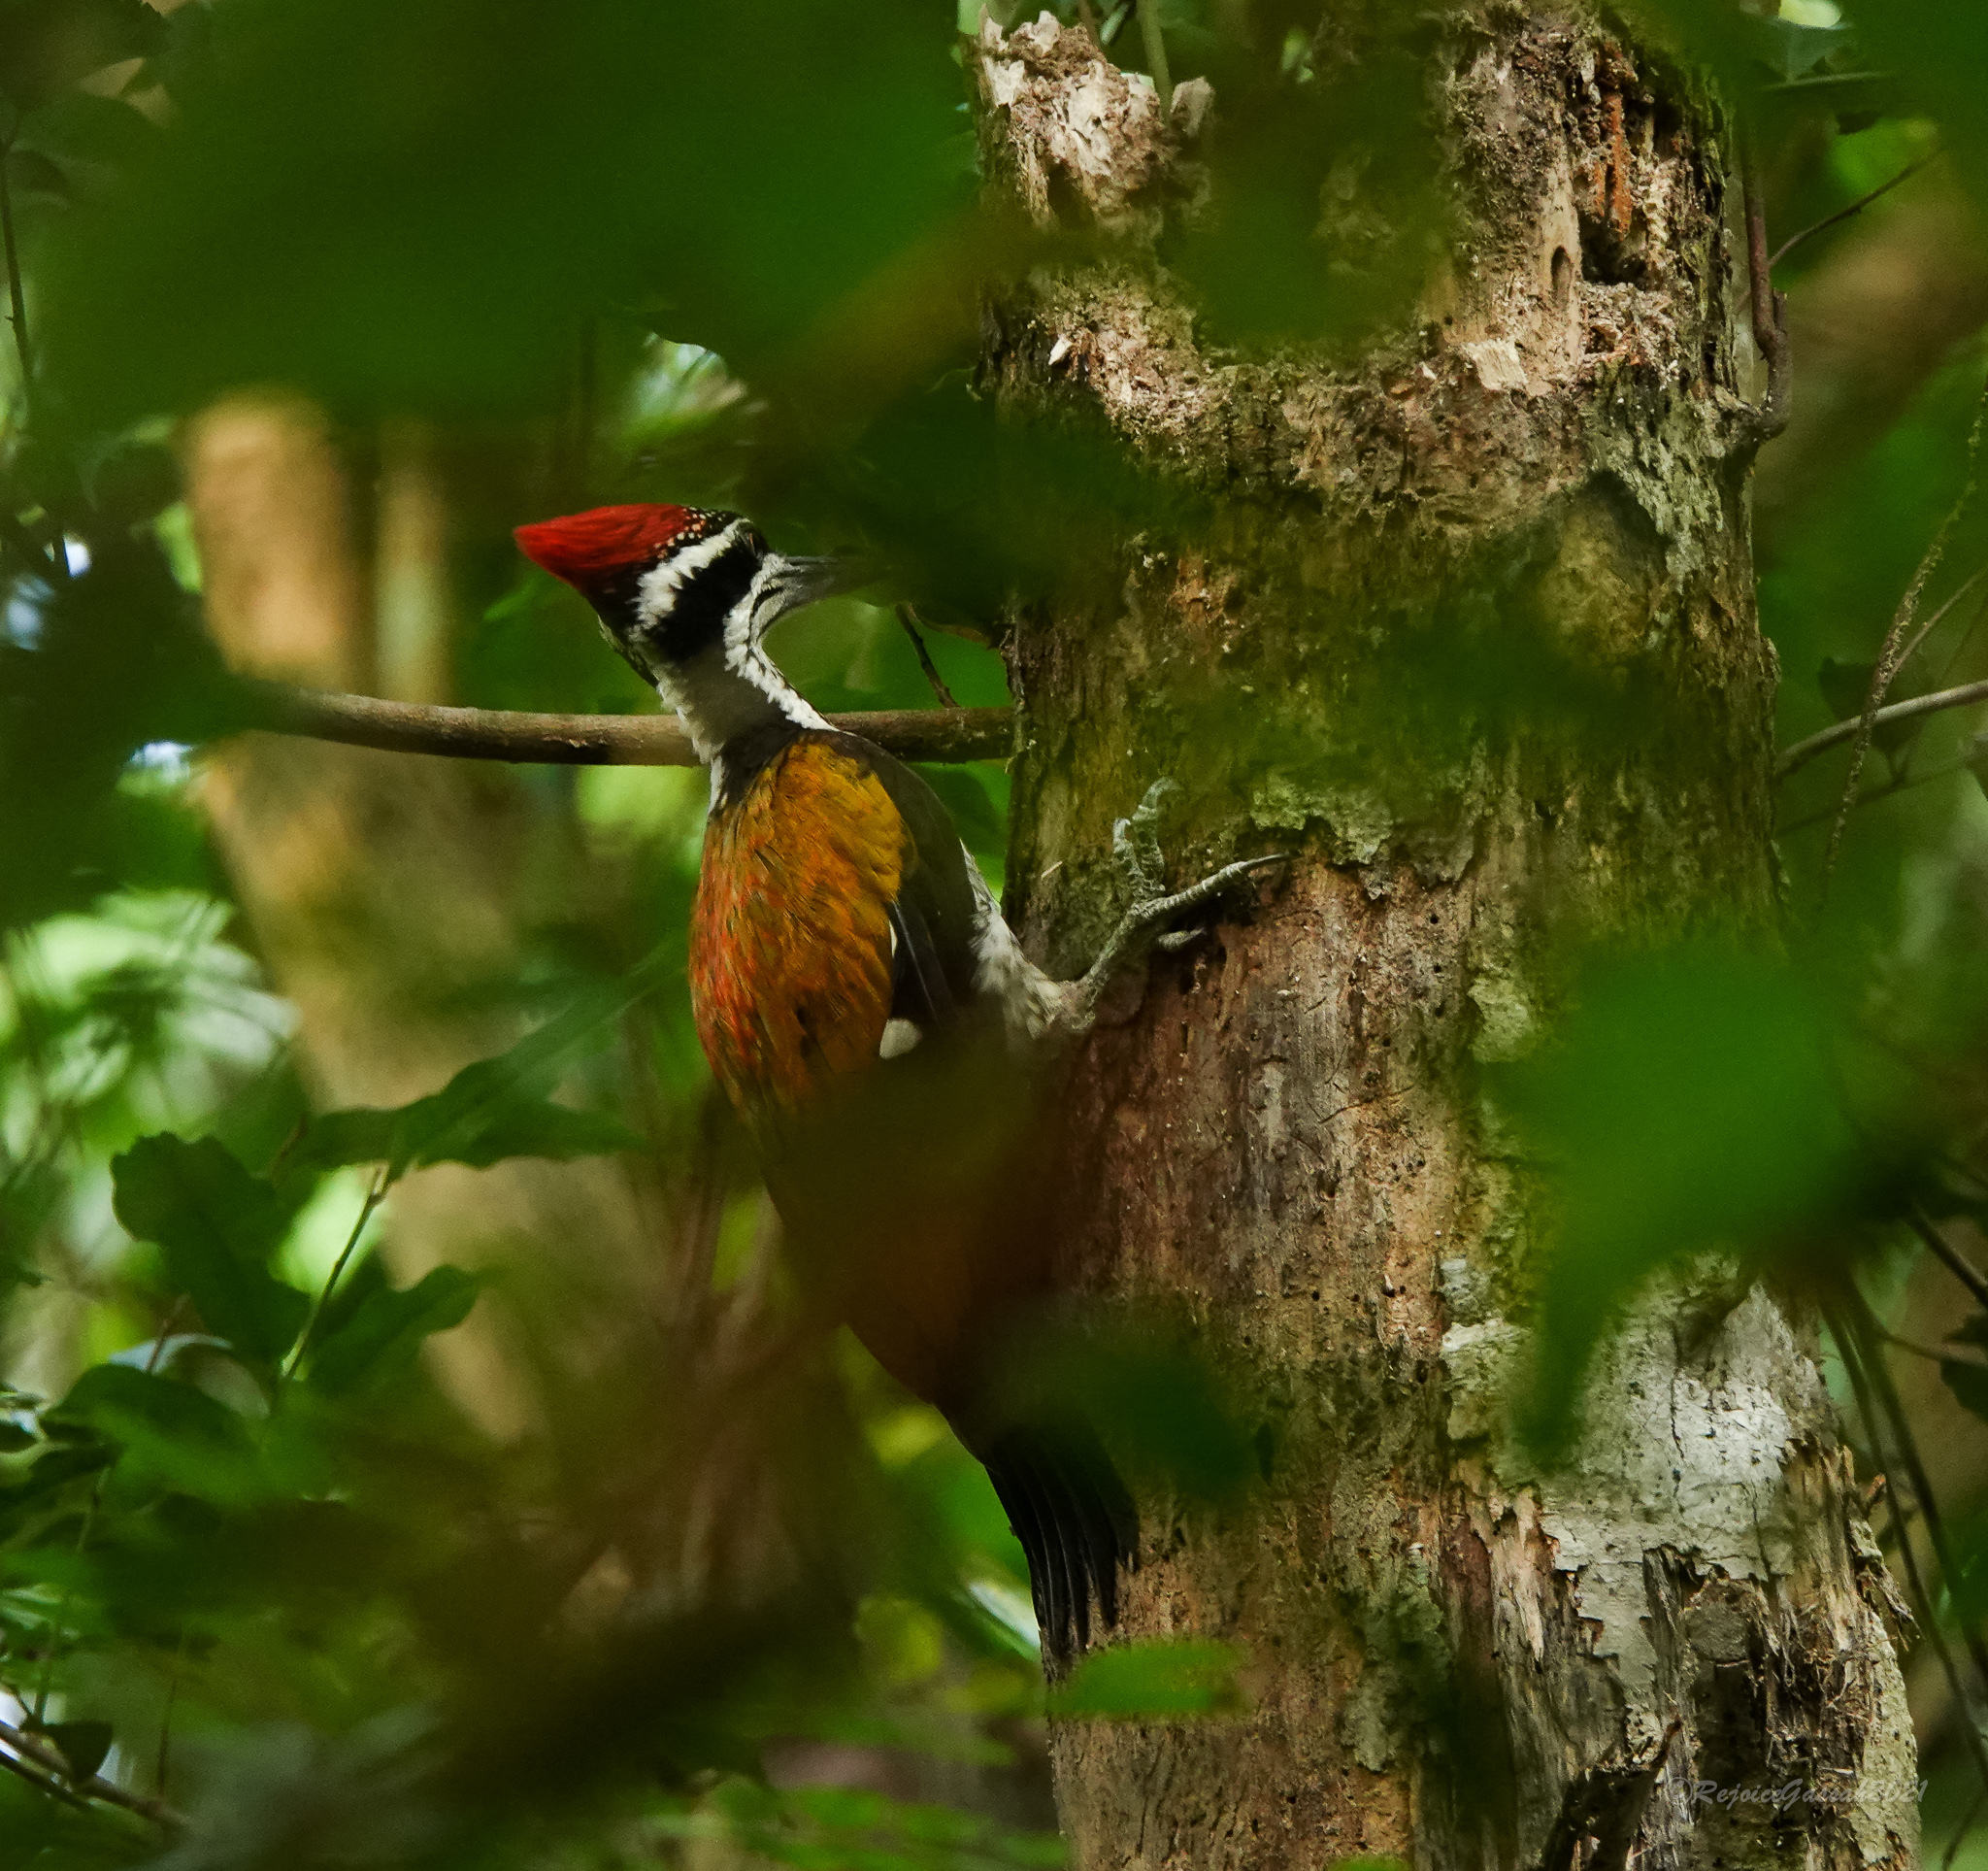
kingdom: Animalia
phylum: Chordata
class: Aves
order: Piciformes
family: Picidae
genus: Chrysocolaptes
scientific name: Chrysocolaptes guttacristatus
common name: Greater flameback
